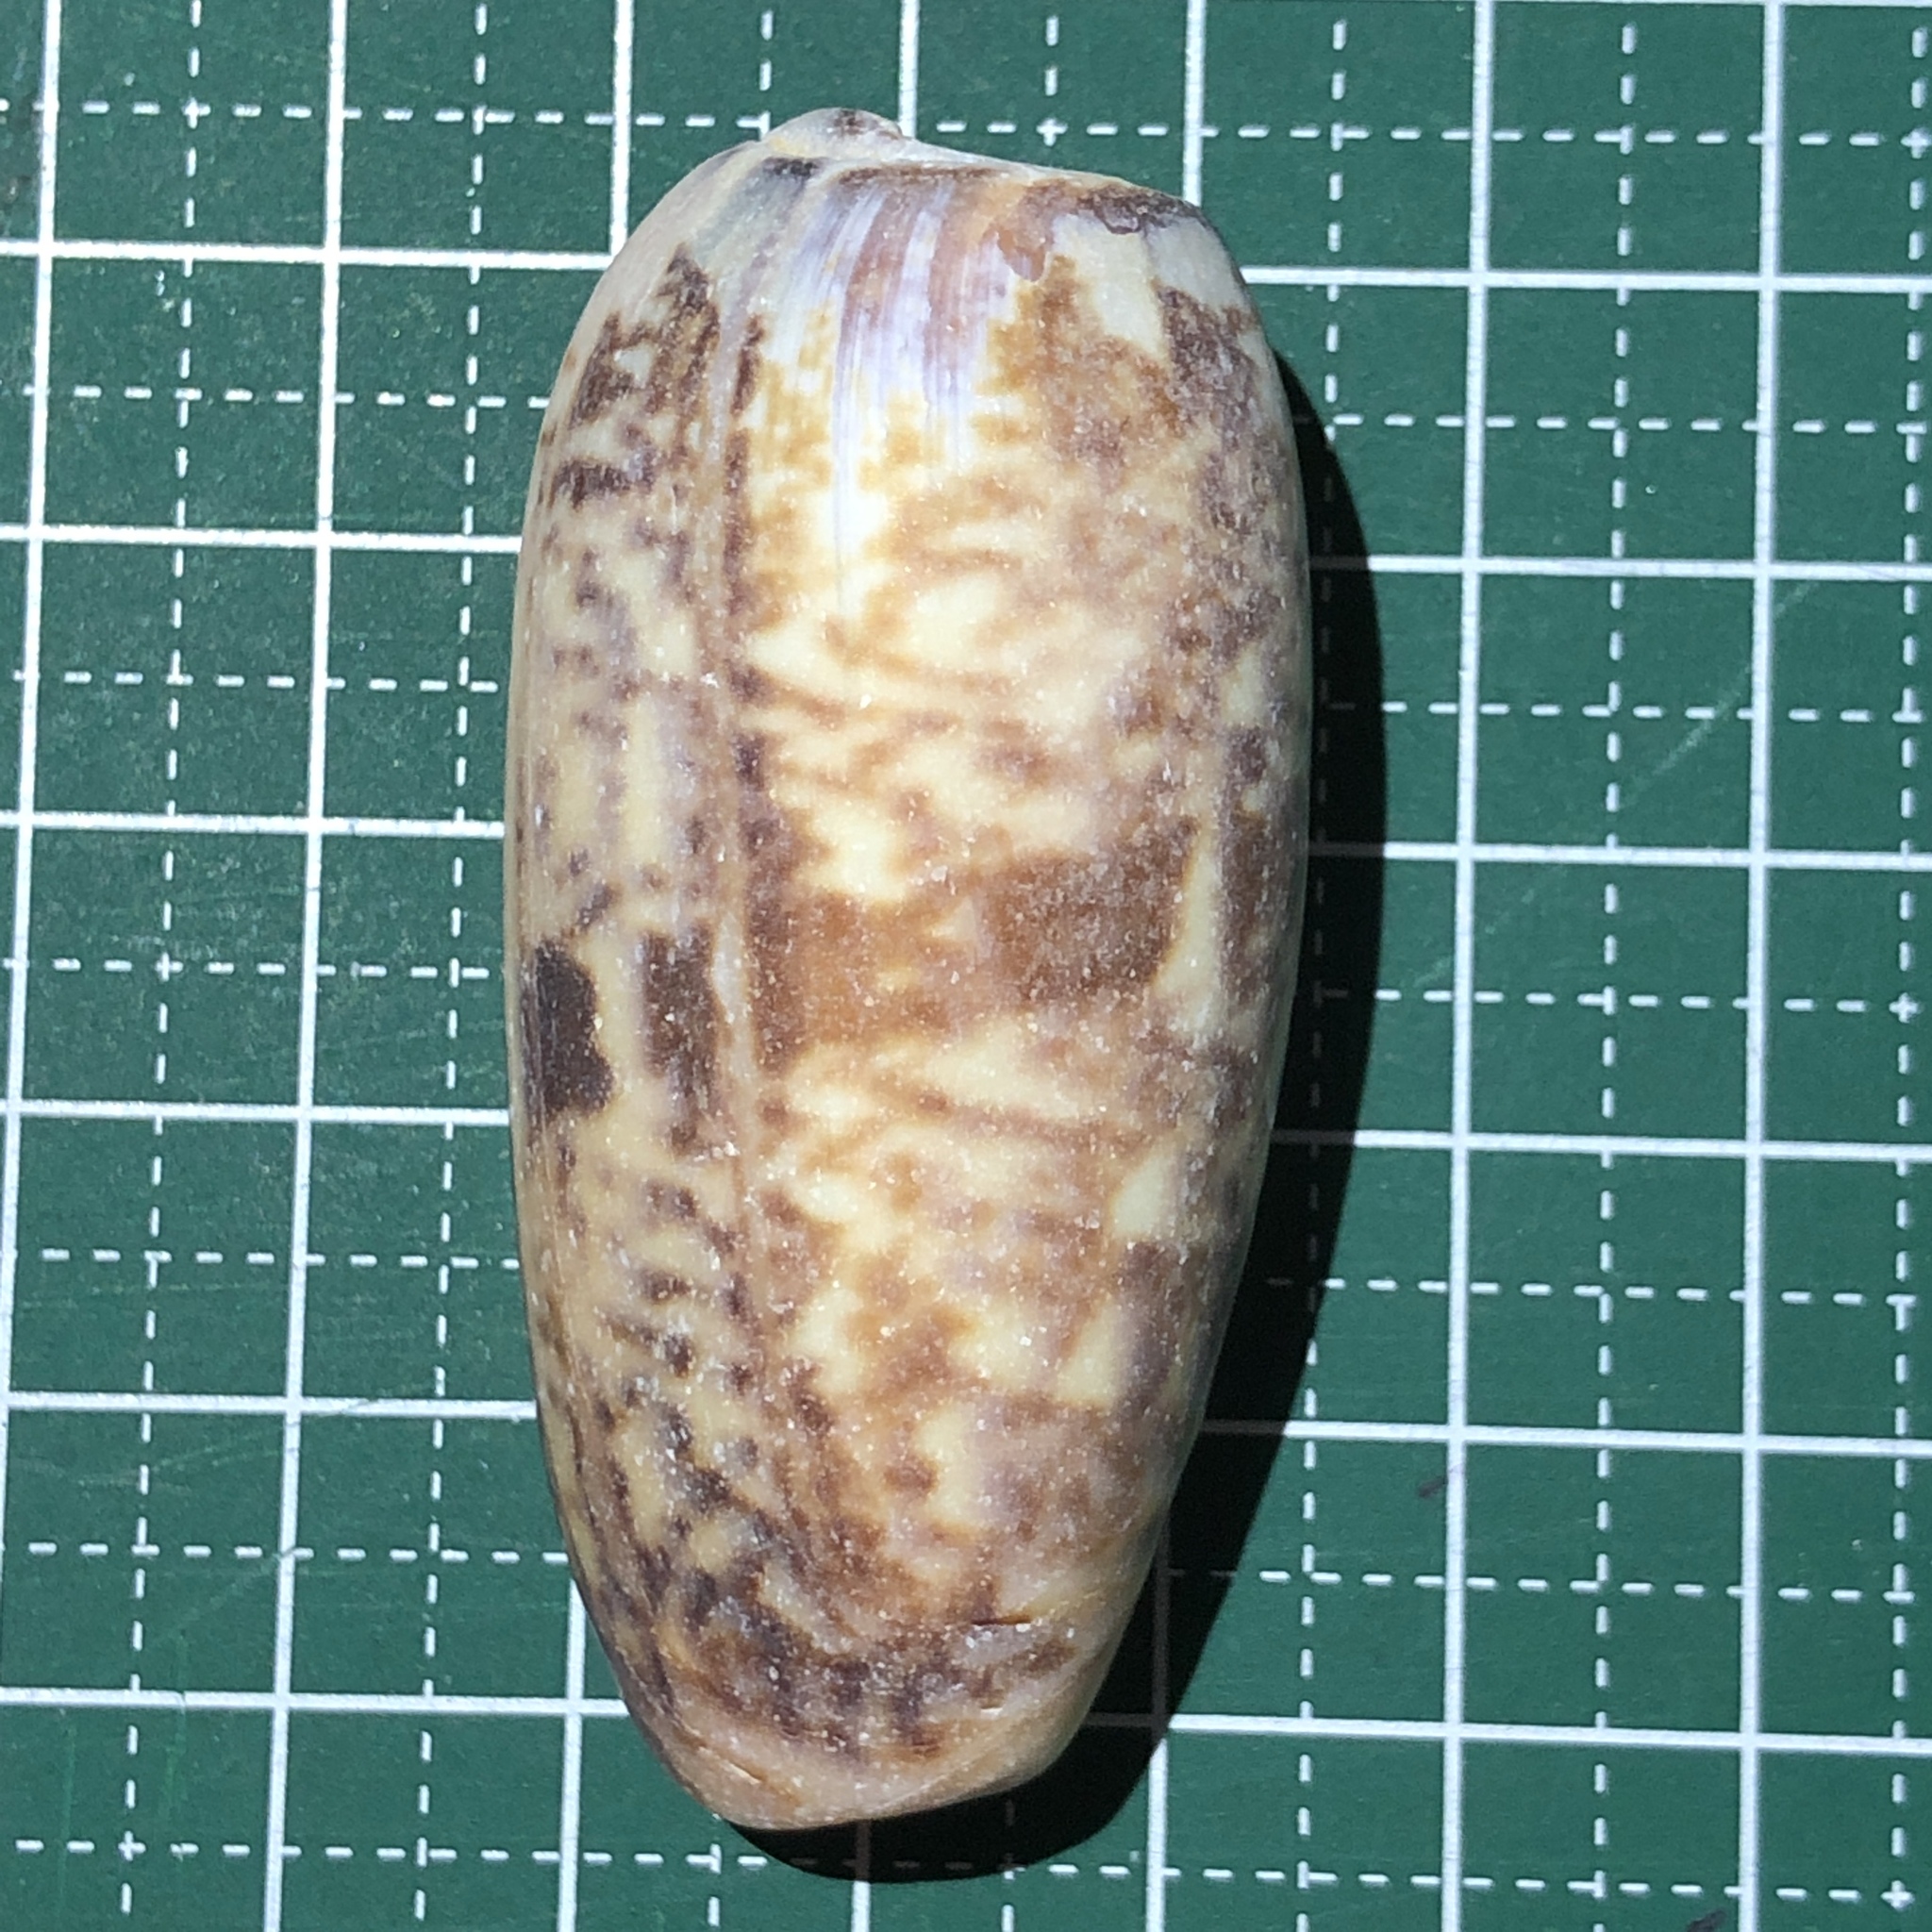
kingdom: Animalia
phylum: Mollusca
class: Gastropoda
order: Neogastropoda
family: Olividae
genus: Oliva
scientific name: Oliva miniacea
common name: Pacific common olive
